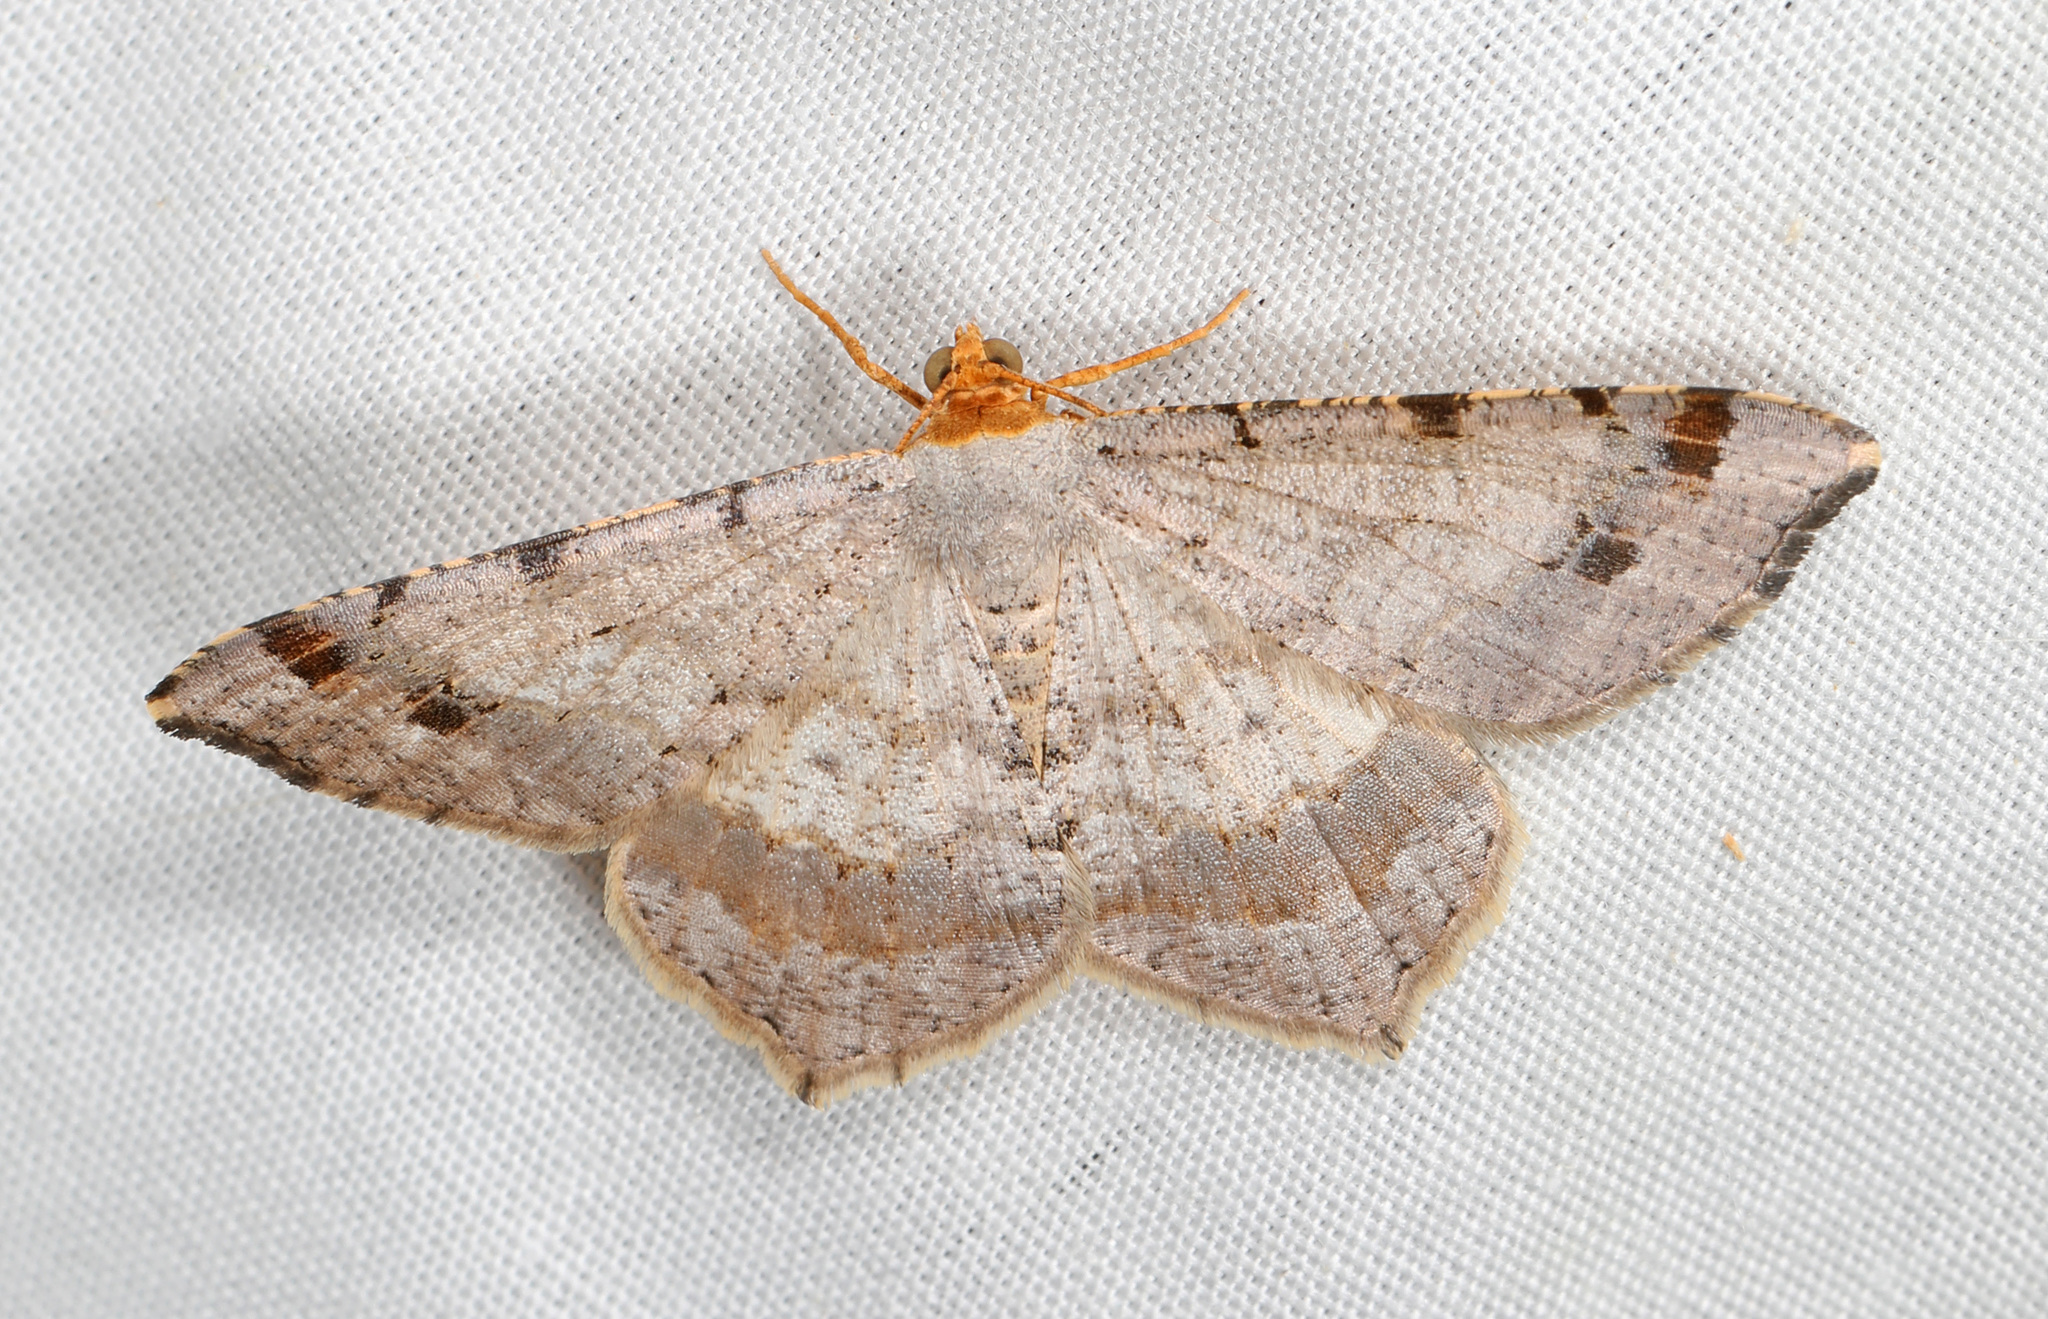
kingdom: Animalia
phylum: Arthropoda
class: Insecta
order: Lepidoptera
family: Geometridae
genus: Macaria
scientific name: Macaria bisignata
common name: Red-headed inchworm
